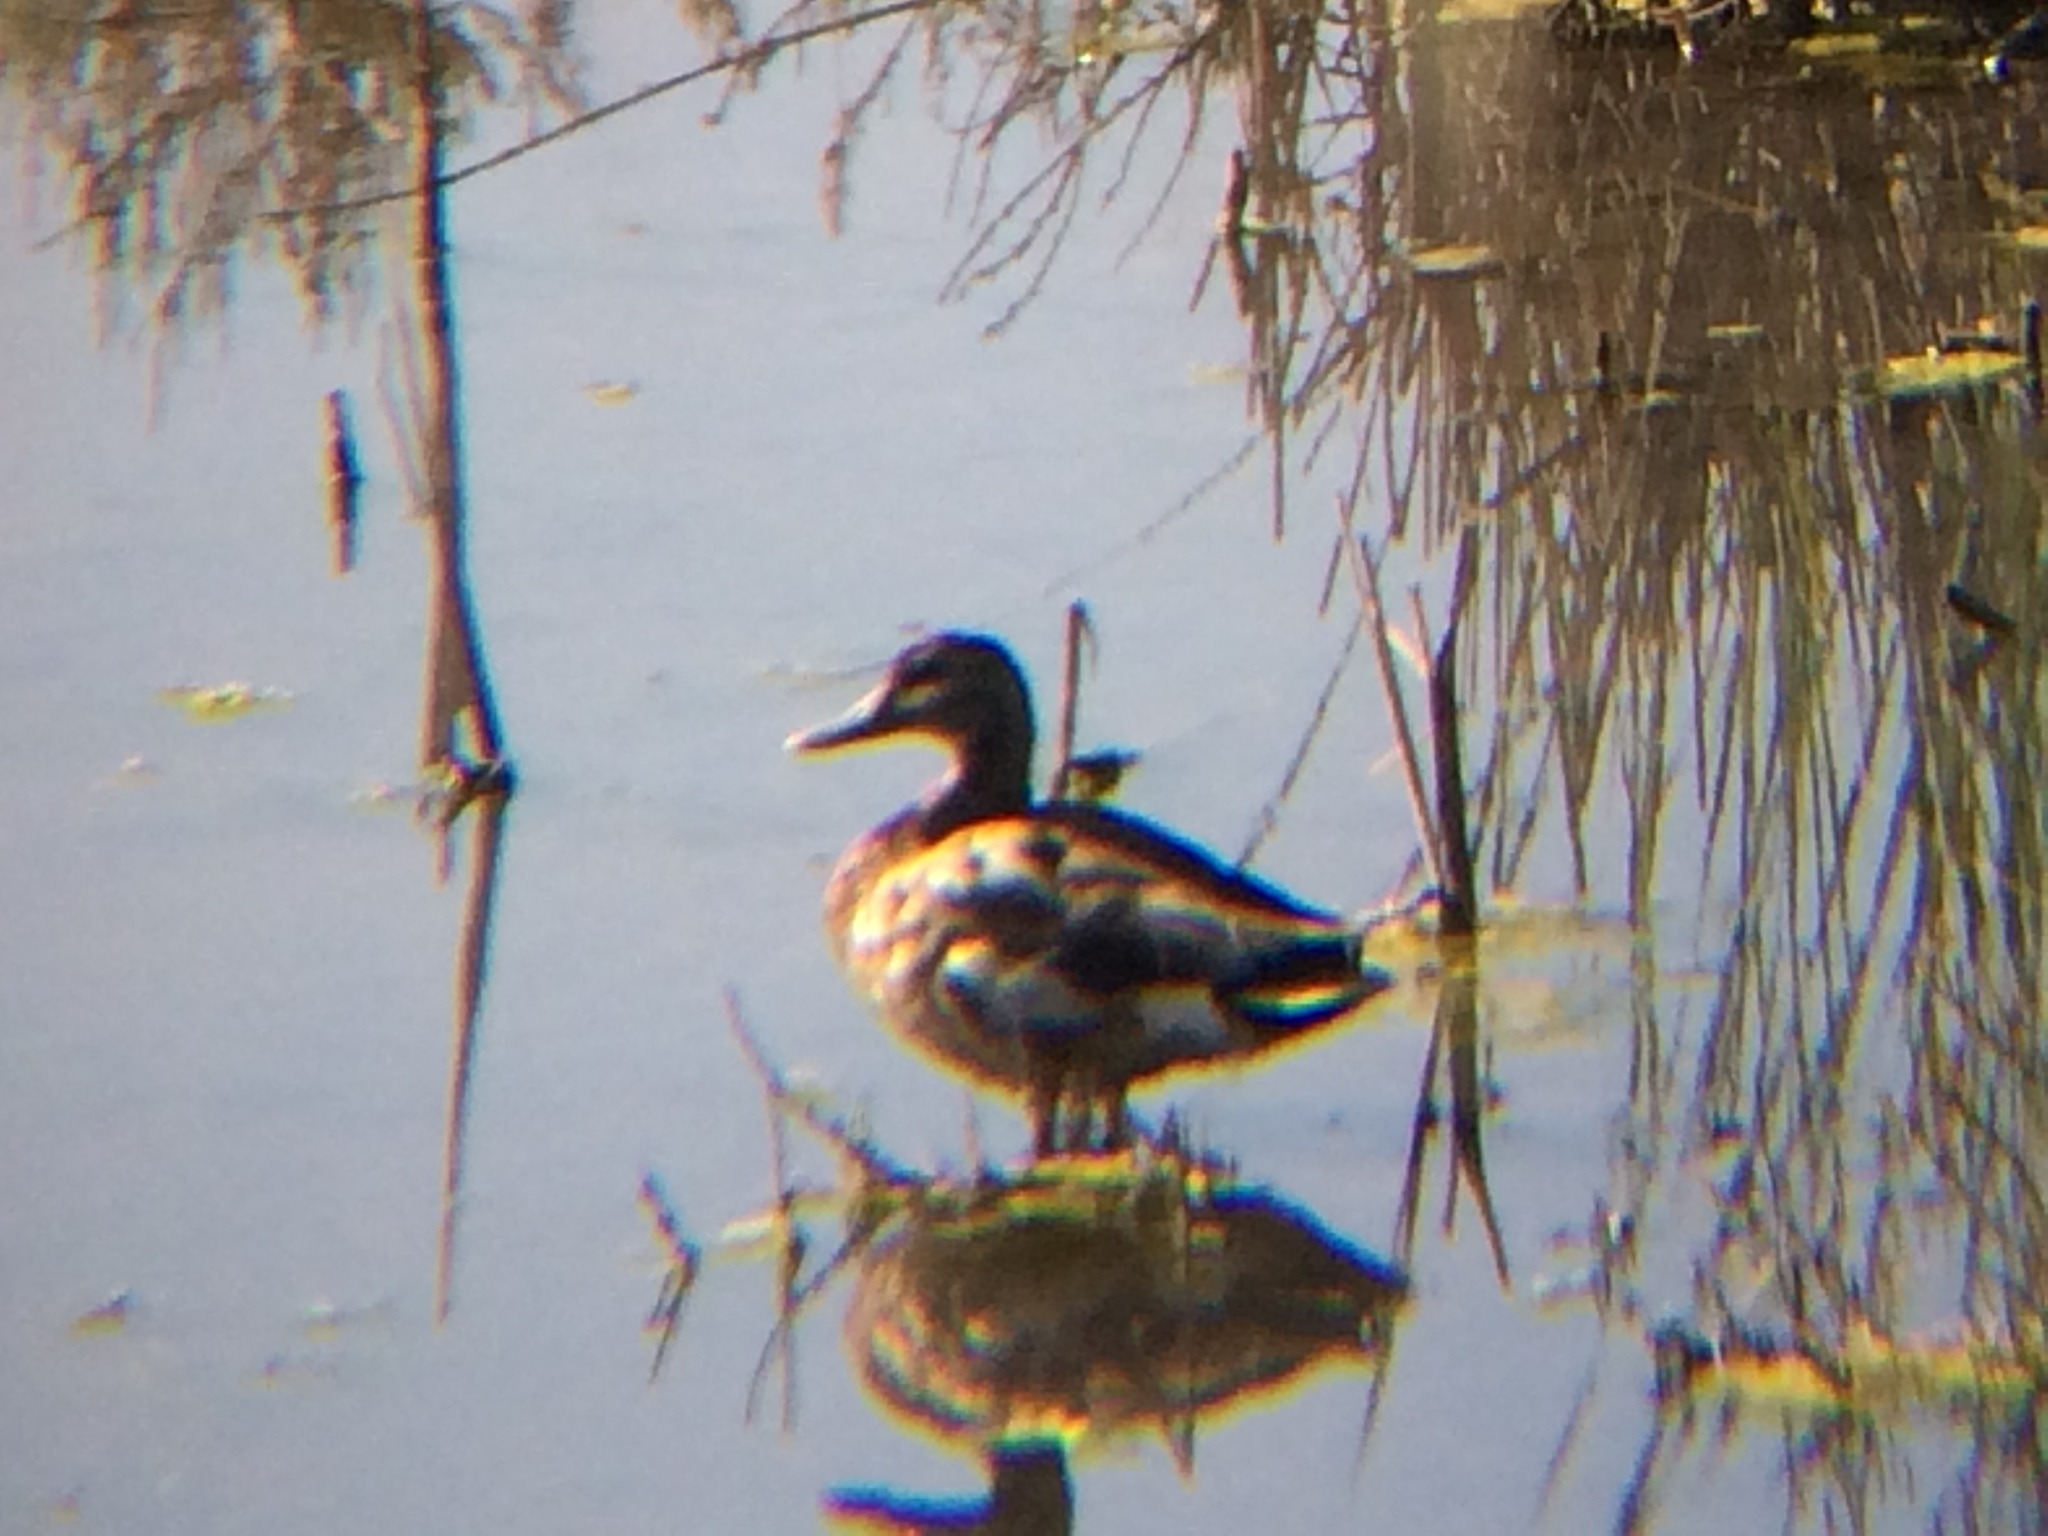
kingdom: Animalia
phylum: Chordata
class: Aves
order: Anseriformes
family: Anatidae
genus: Anas
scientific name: Anas platyrhynchos
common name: Mallard
